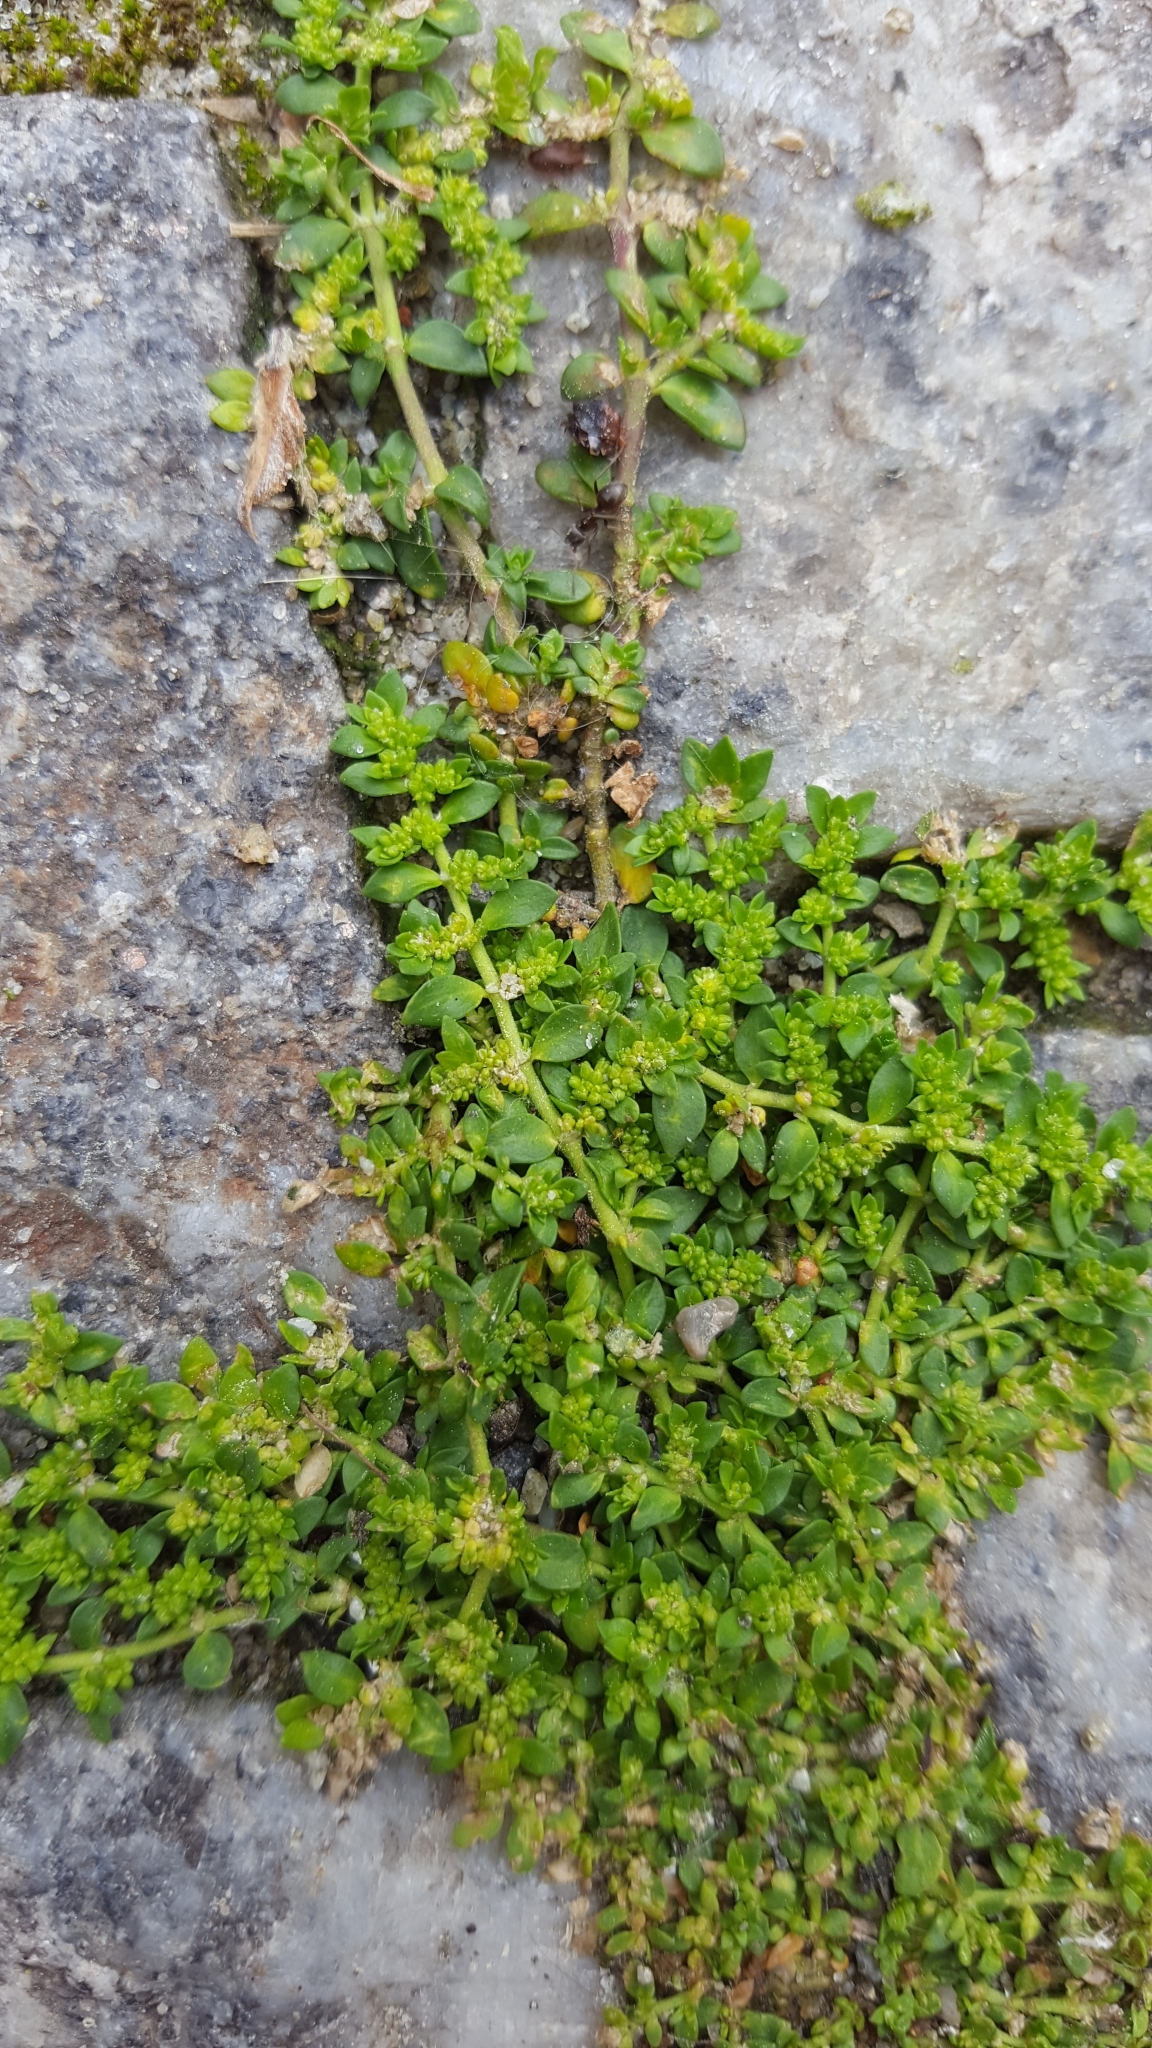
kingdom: Plantae
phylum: Tracheophyta
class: Magnoliopsida
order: Caryophyllales
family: Caryophyllaceae
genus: Herniaria
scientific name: Herniaria glabra
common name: Smooth rupturewort
